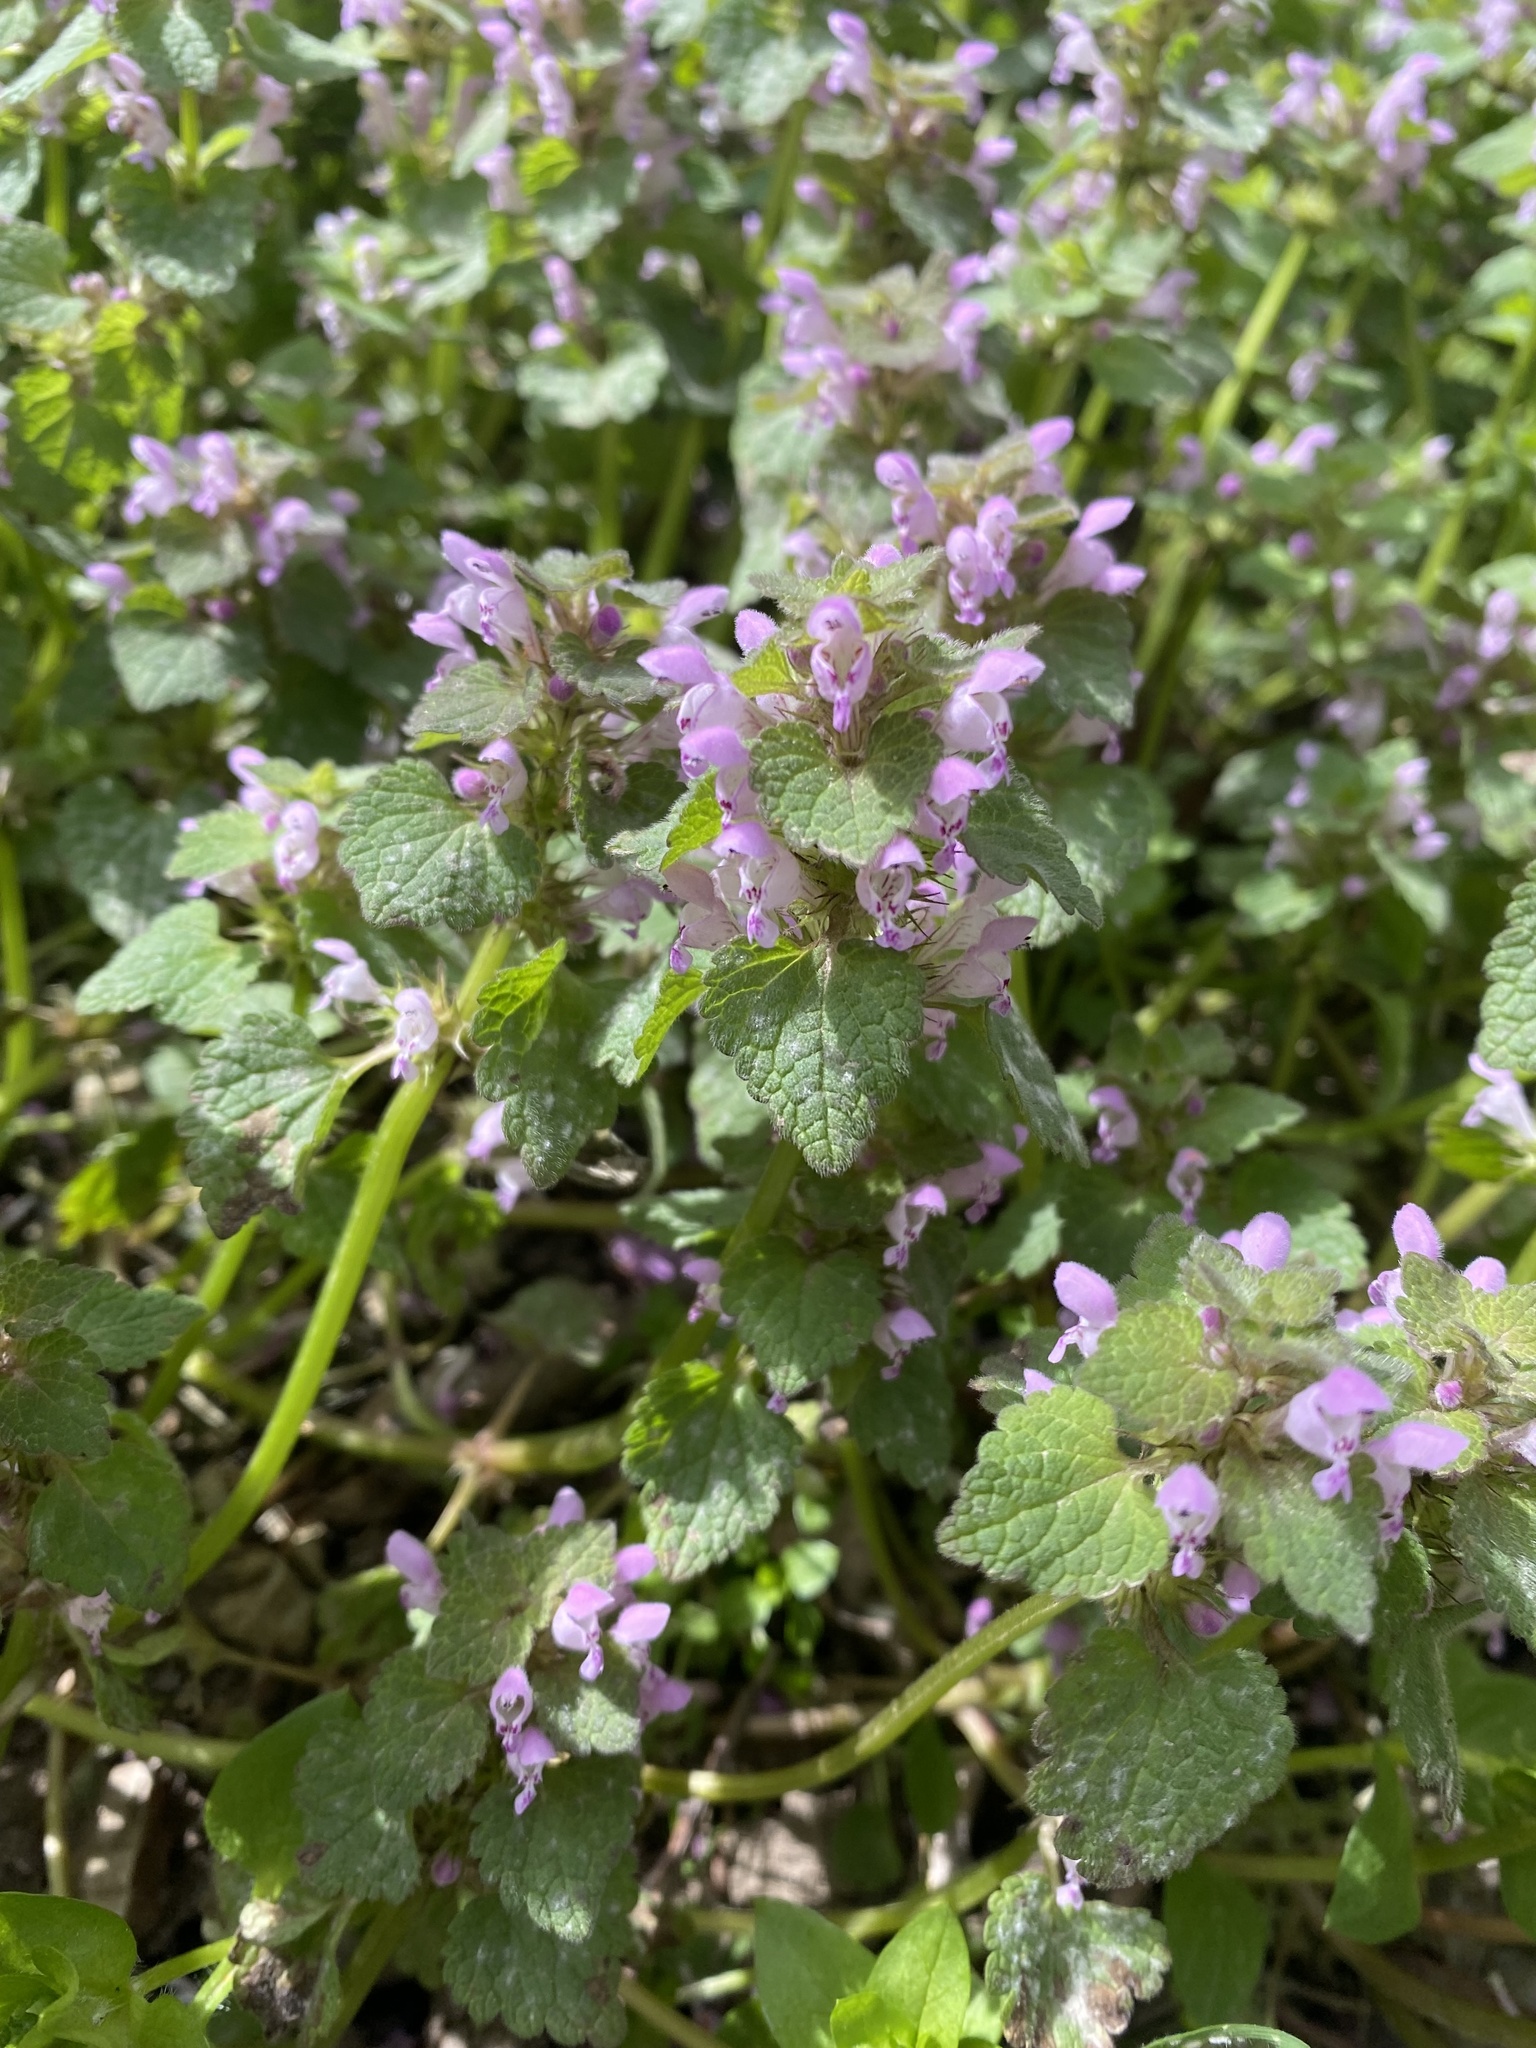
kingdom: Plantae
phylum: Tracheophyta
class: Magnoliopsida
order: Lamiales
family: Lamiaceae
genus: Lamium
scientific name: Lamium purpureum
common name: Red dead-nettle
